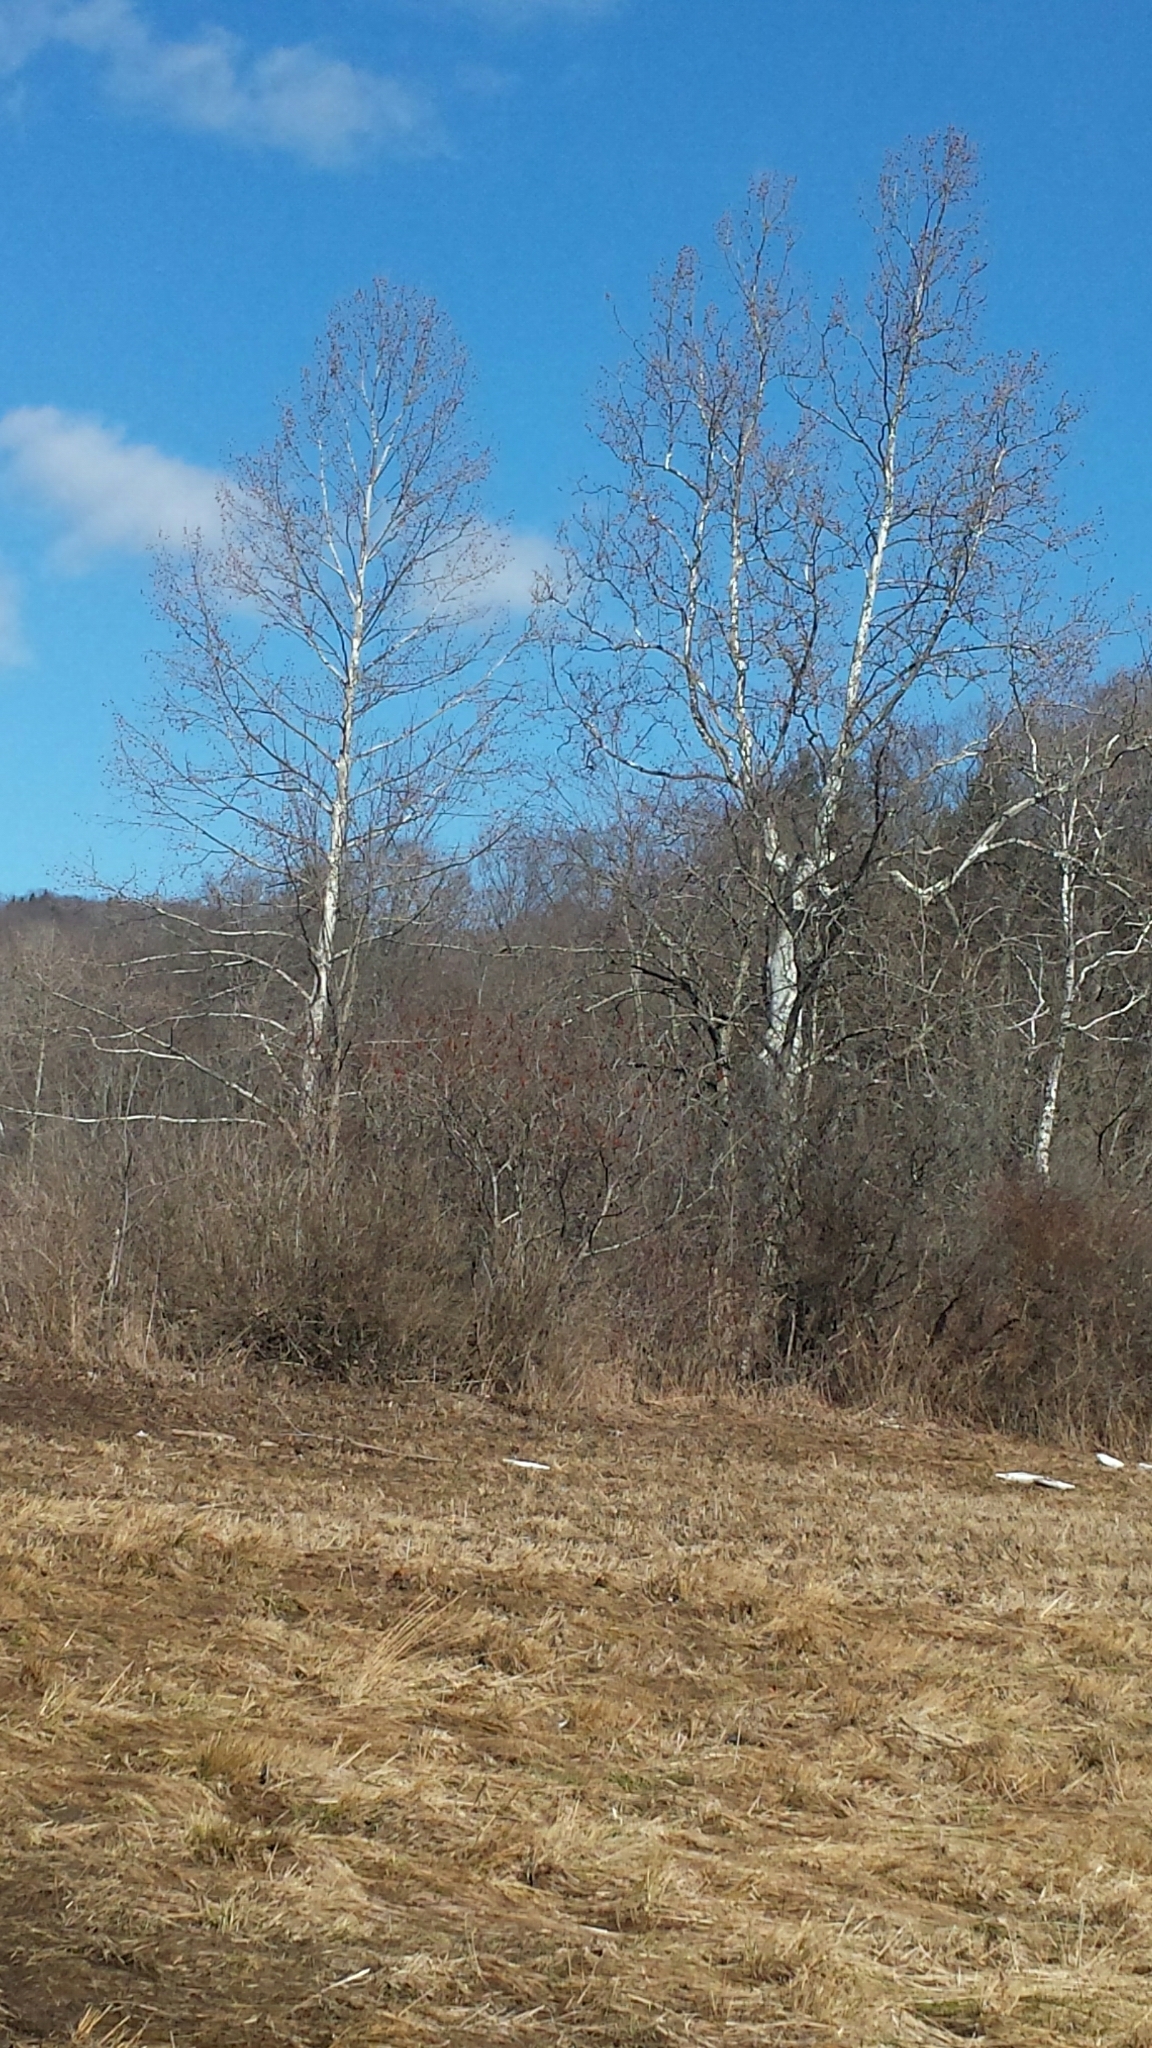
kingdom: Plantae
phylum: Tracheophyta
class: Magnoliopsida
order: Proteales
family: Platanaceae
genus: Platanus
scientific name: Platanus occidentalis
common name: American sycamore
